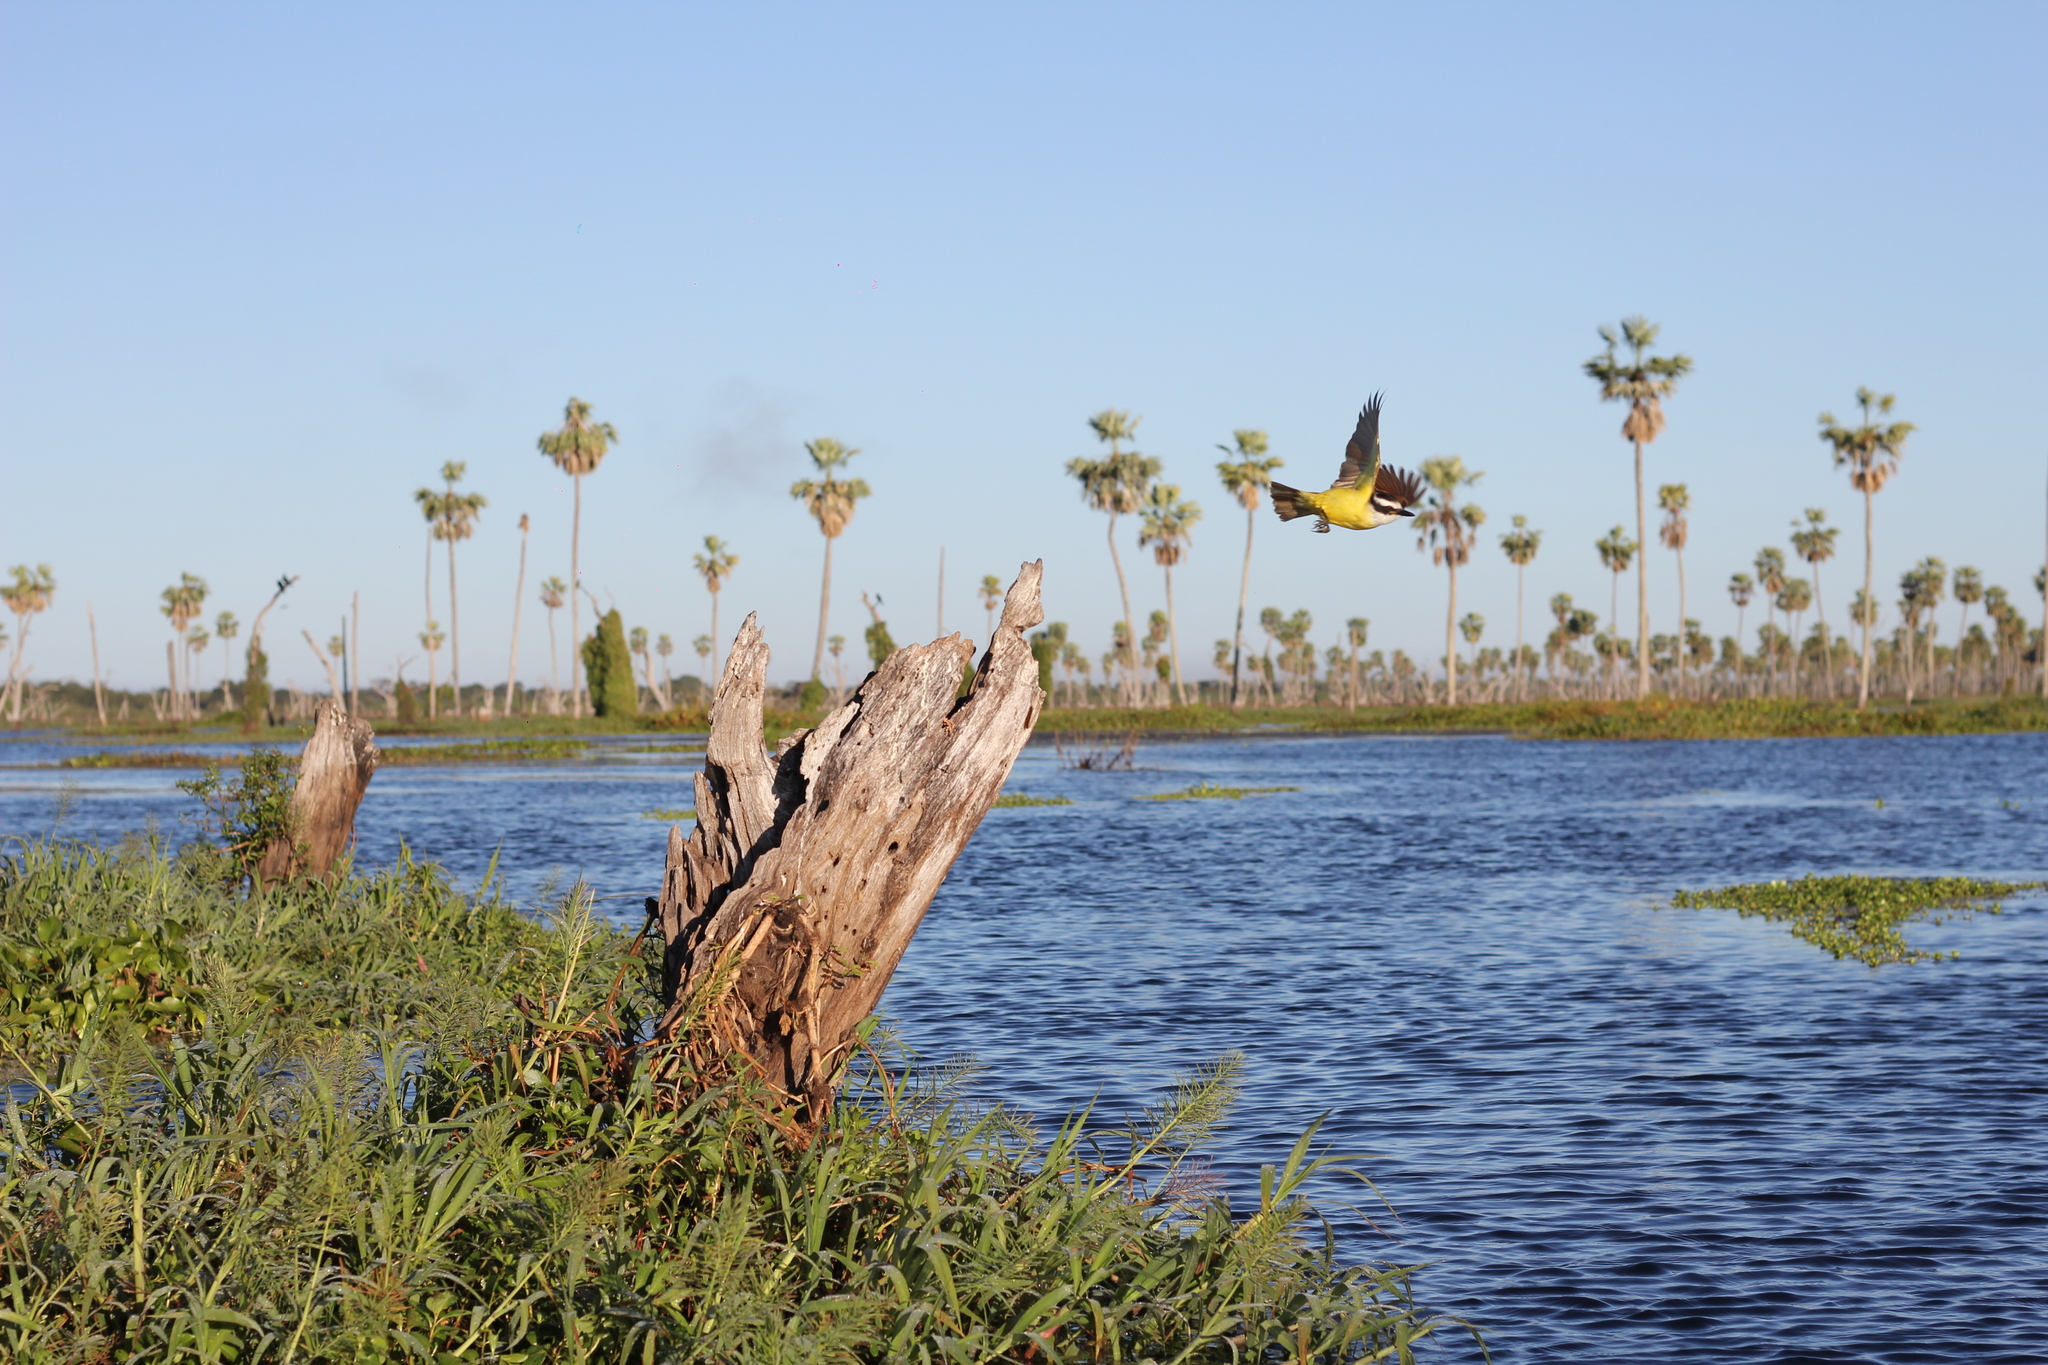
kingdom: Animalia
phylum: Chordata
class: Aves
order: Passeriformes
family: Tyrannidae
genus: Pitangus
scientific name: Pitangus sulphuratus
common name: Great kiskadee
